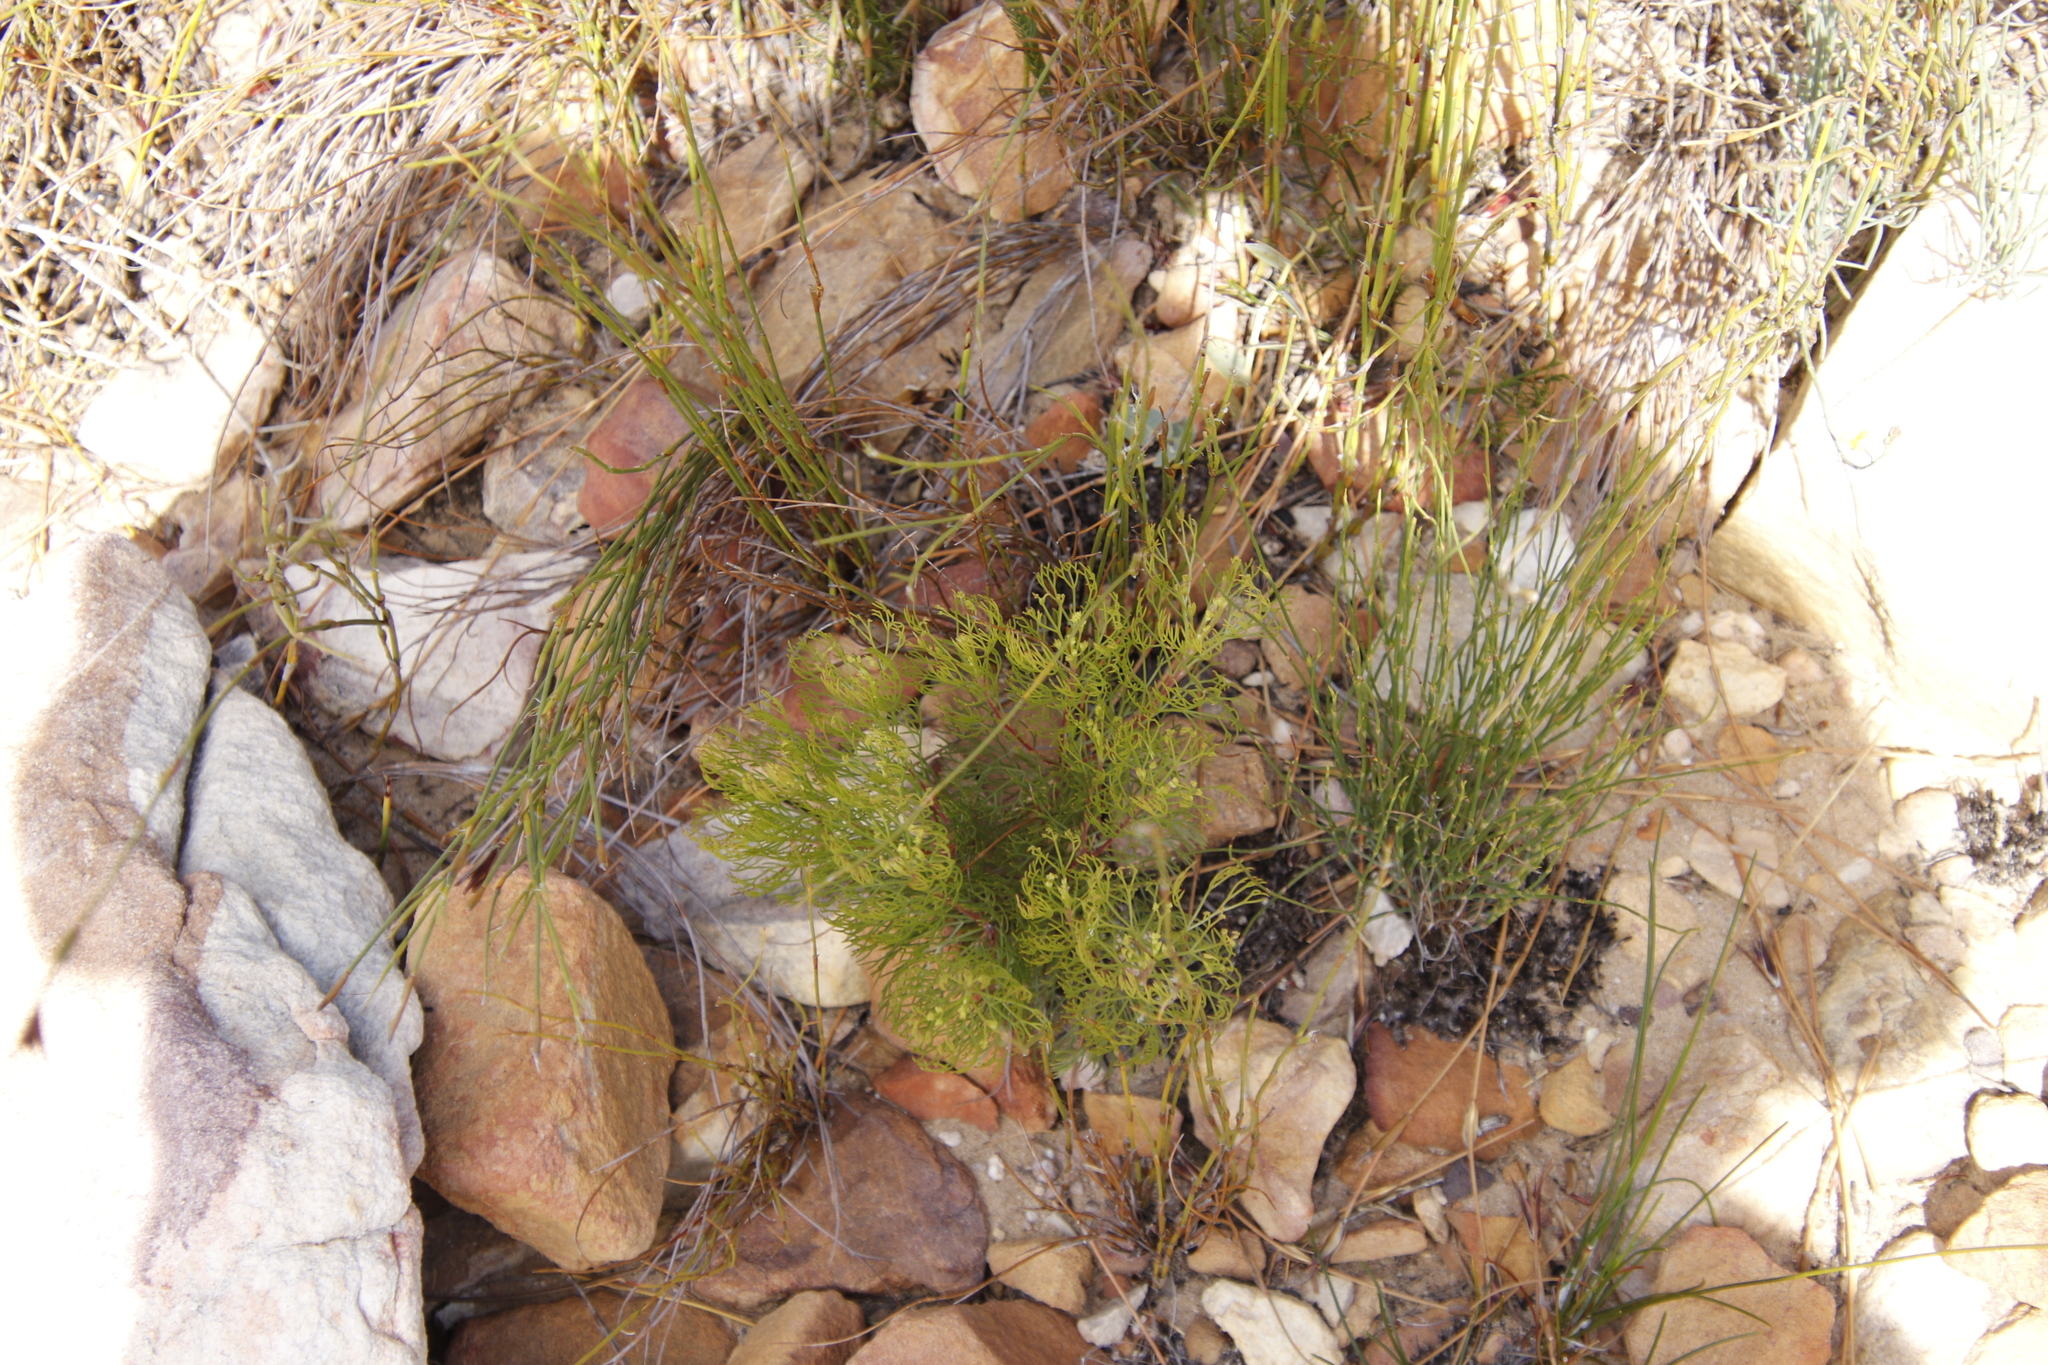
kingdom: Plantae
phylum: Tracheophyta
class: Magnoliopsida
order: Proteales
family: Proteaceae
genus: Serruria
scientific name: Serruria fasciflora
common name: Common pin spiderhead
